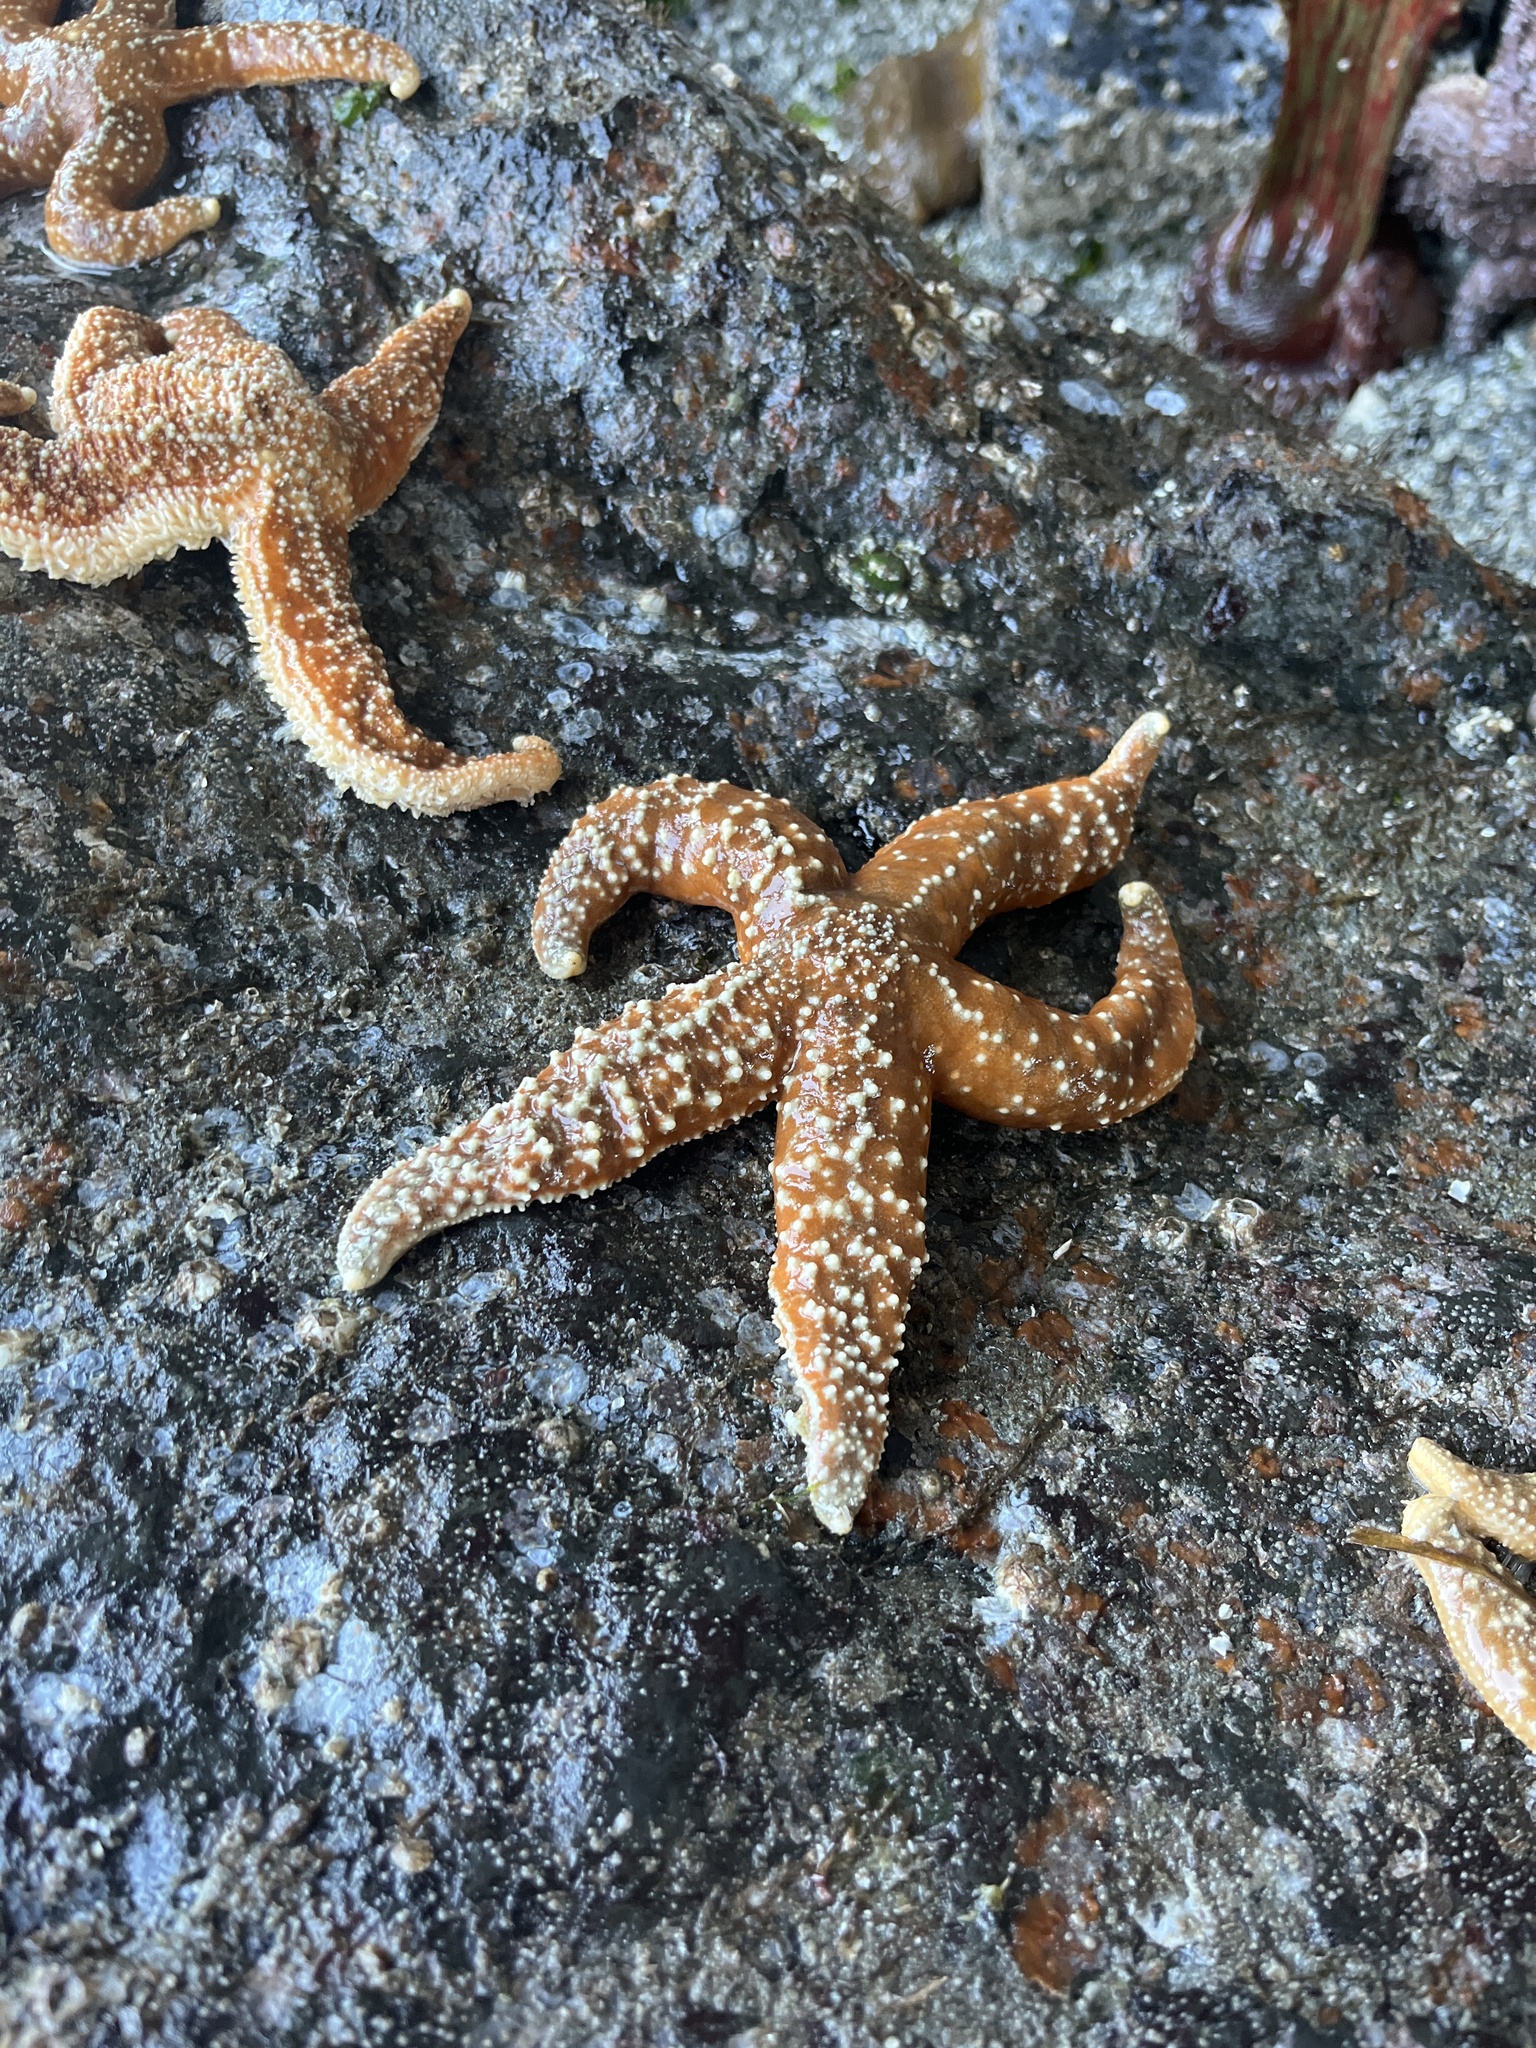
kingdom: Animalia
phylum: Echinodermata
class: Asteroidea
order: Forcipulatida
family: Asteriidae
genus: Evasterias
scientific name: Evasterias troschelii
